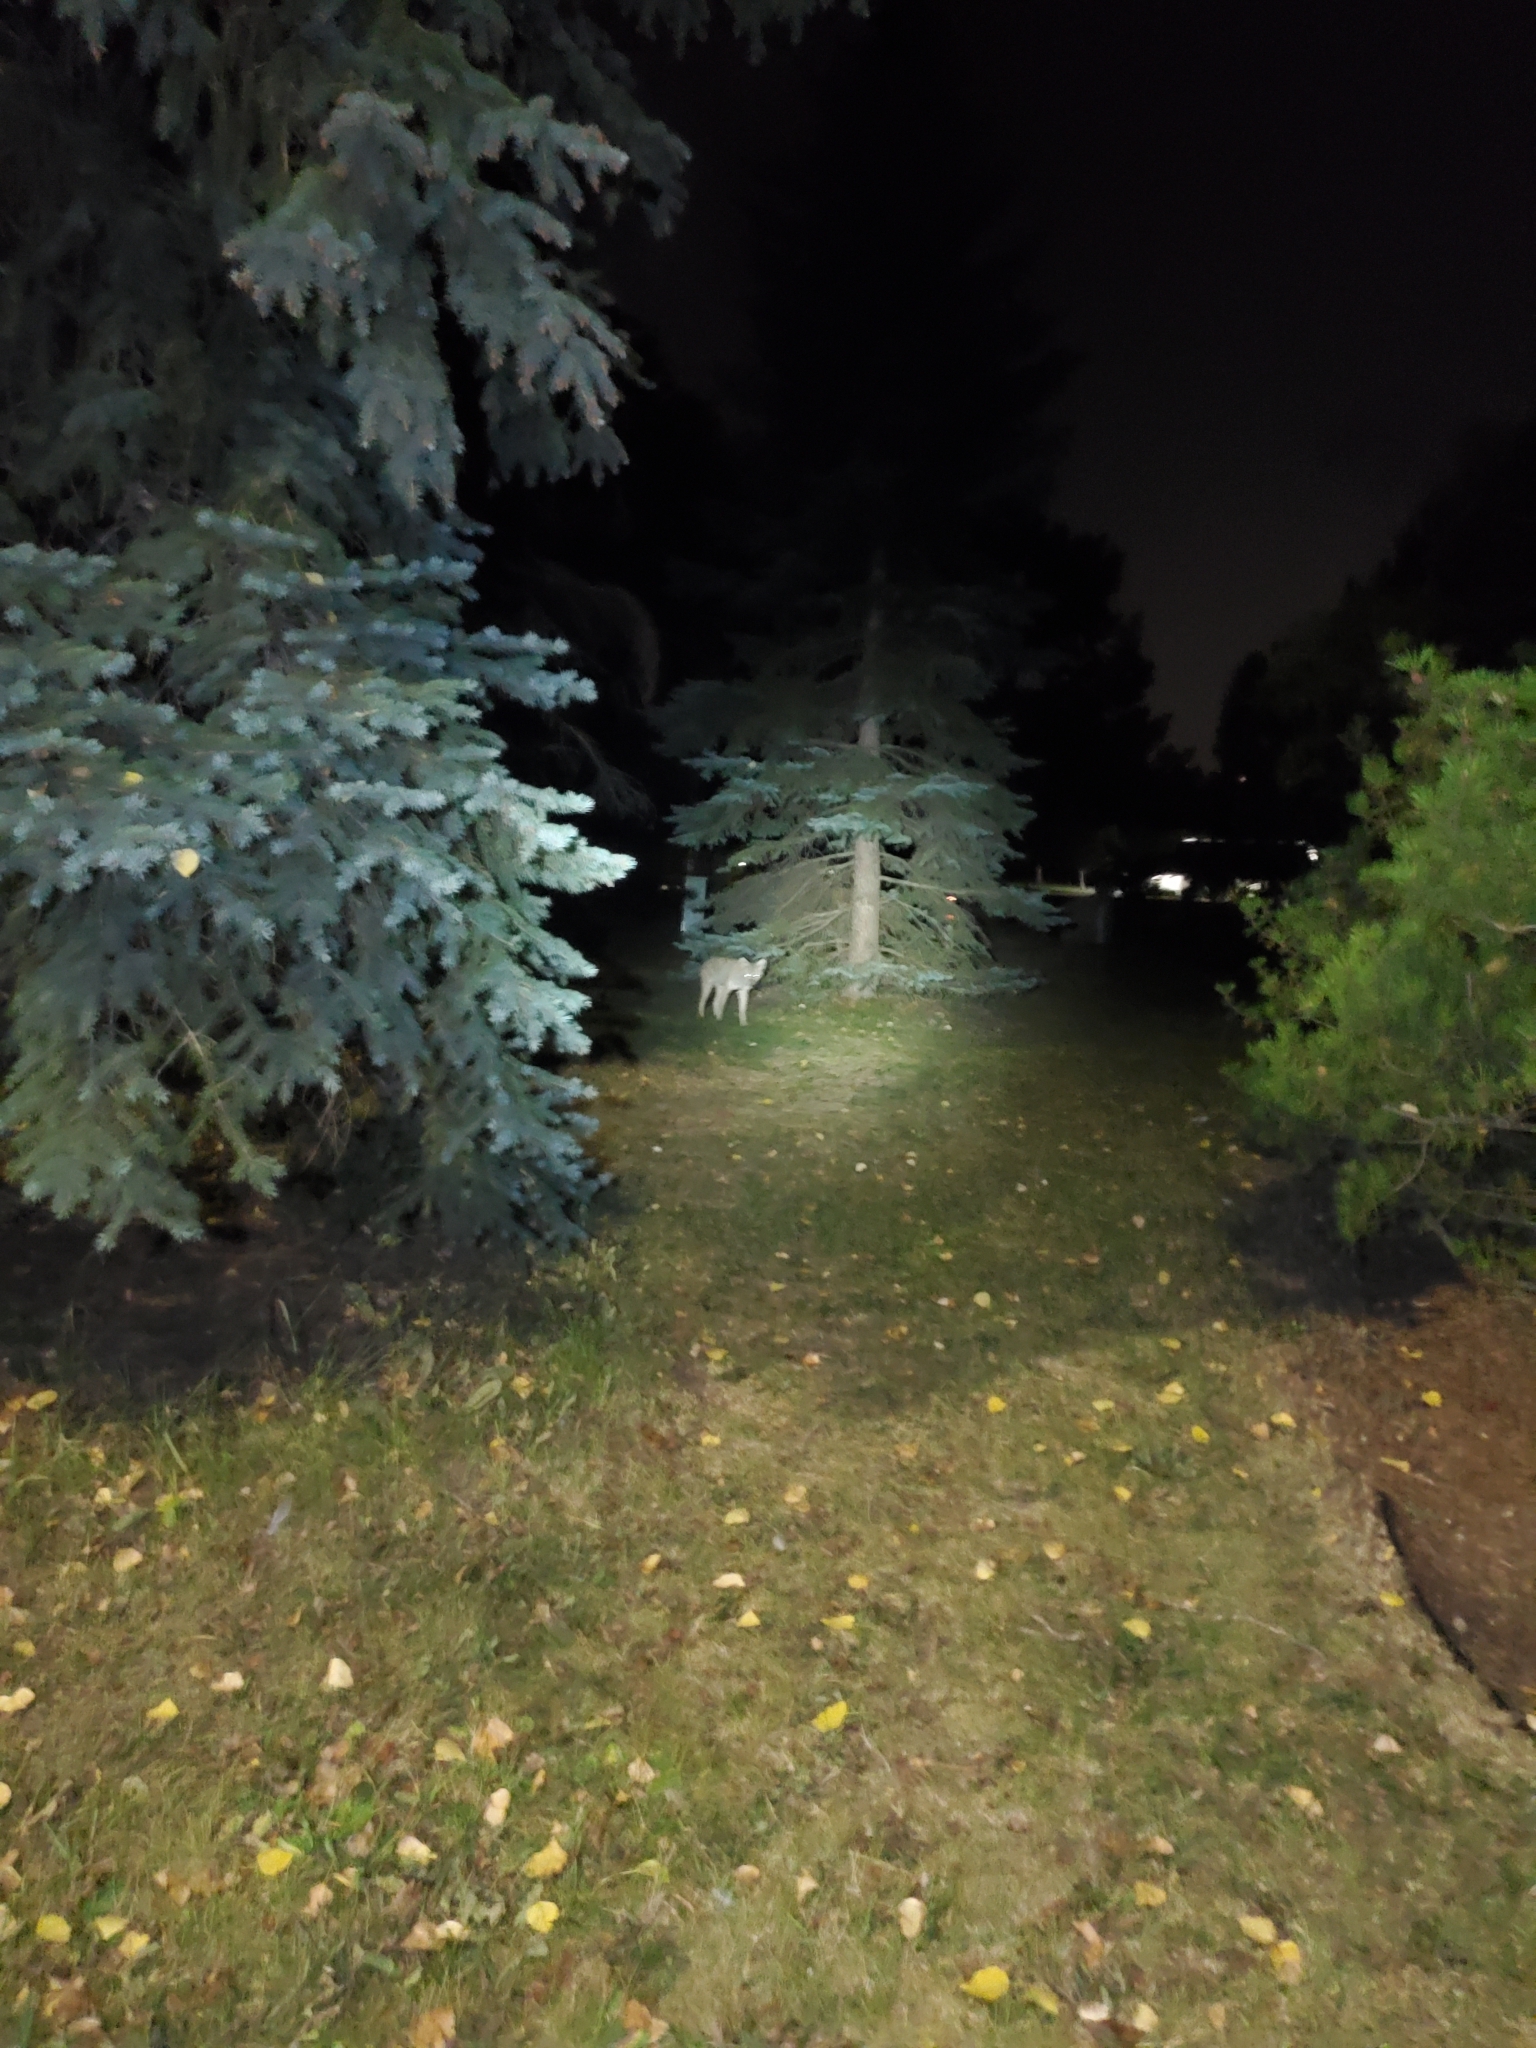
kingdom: Animalia
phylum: Chordata
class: Mammalia
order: Carnivora
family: Canidae
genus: Canis
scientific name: Canis latrans
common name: Coyote
